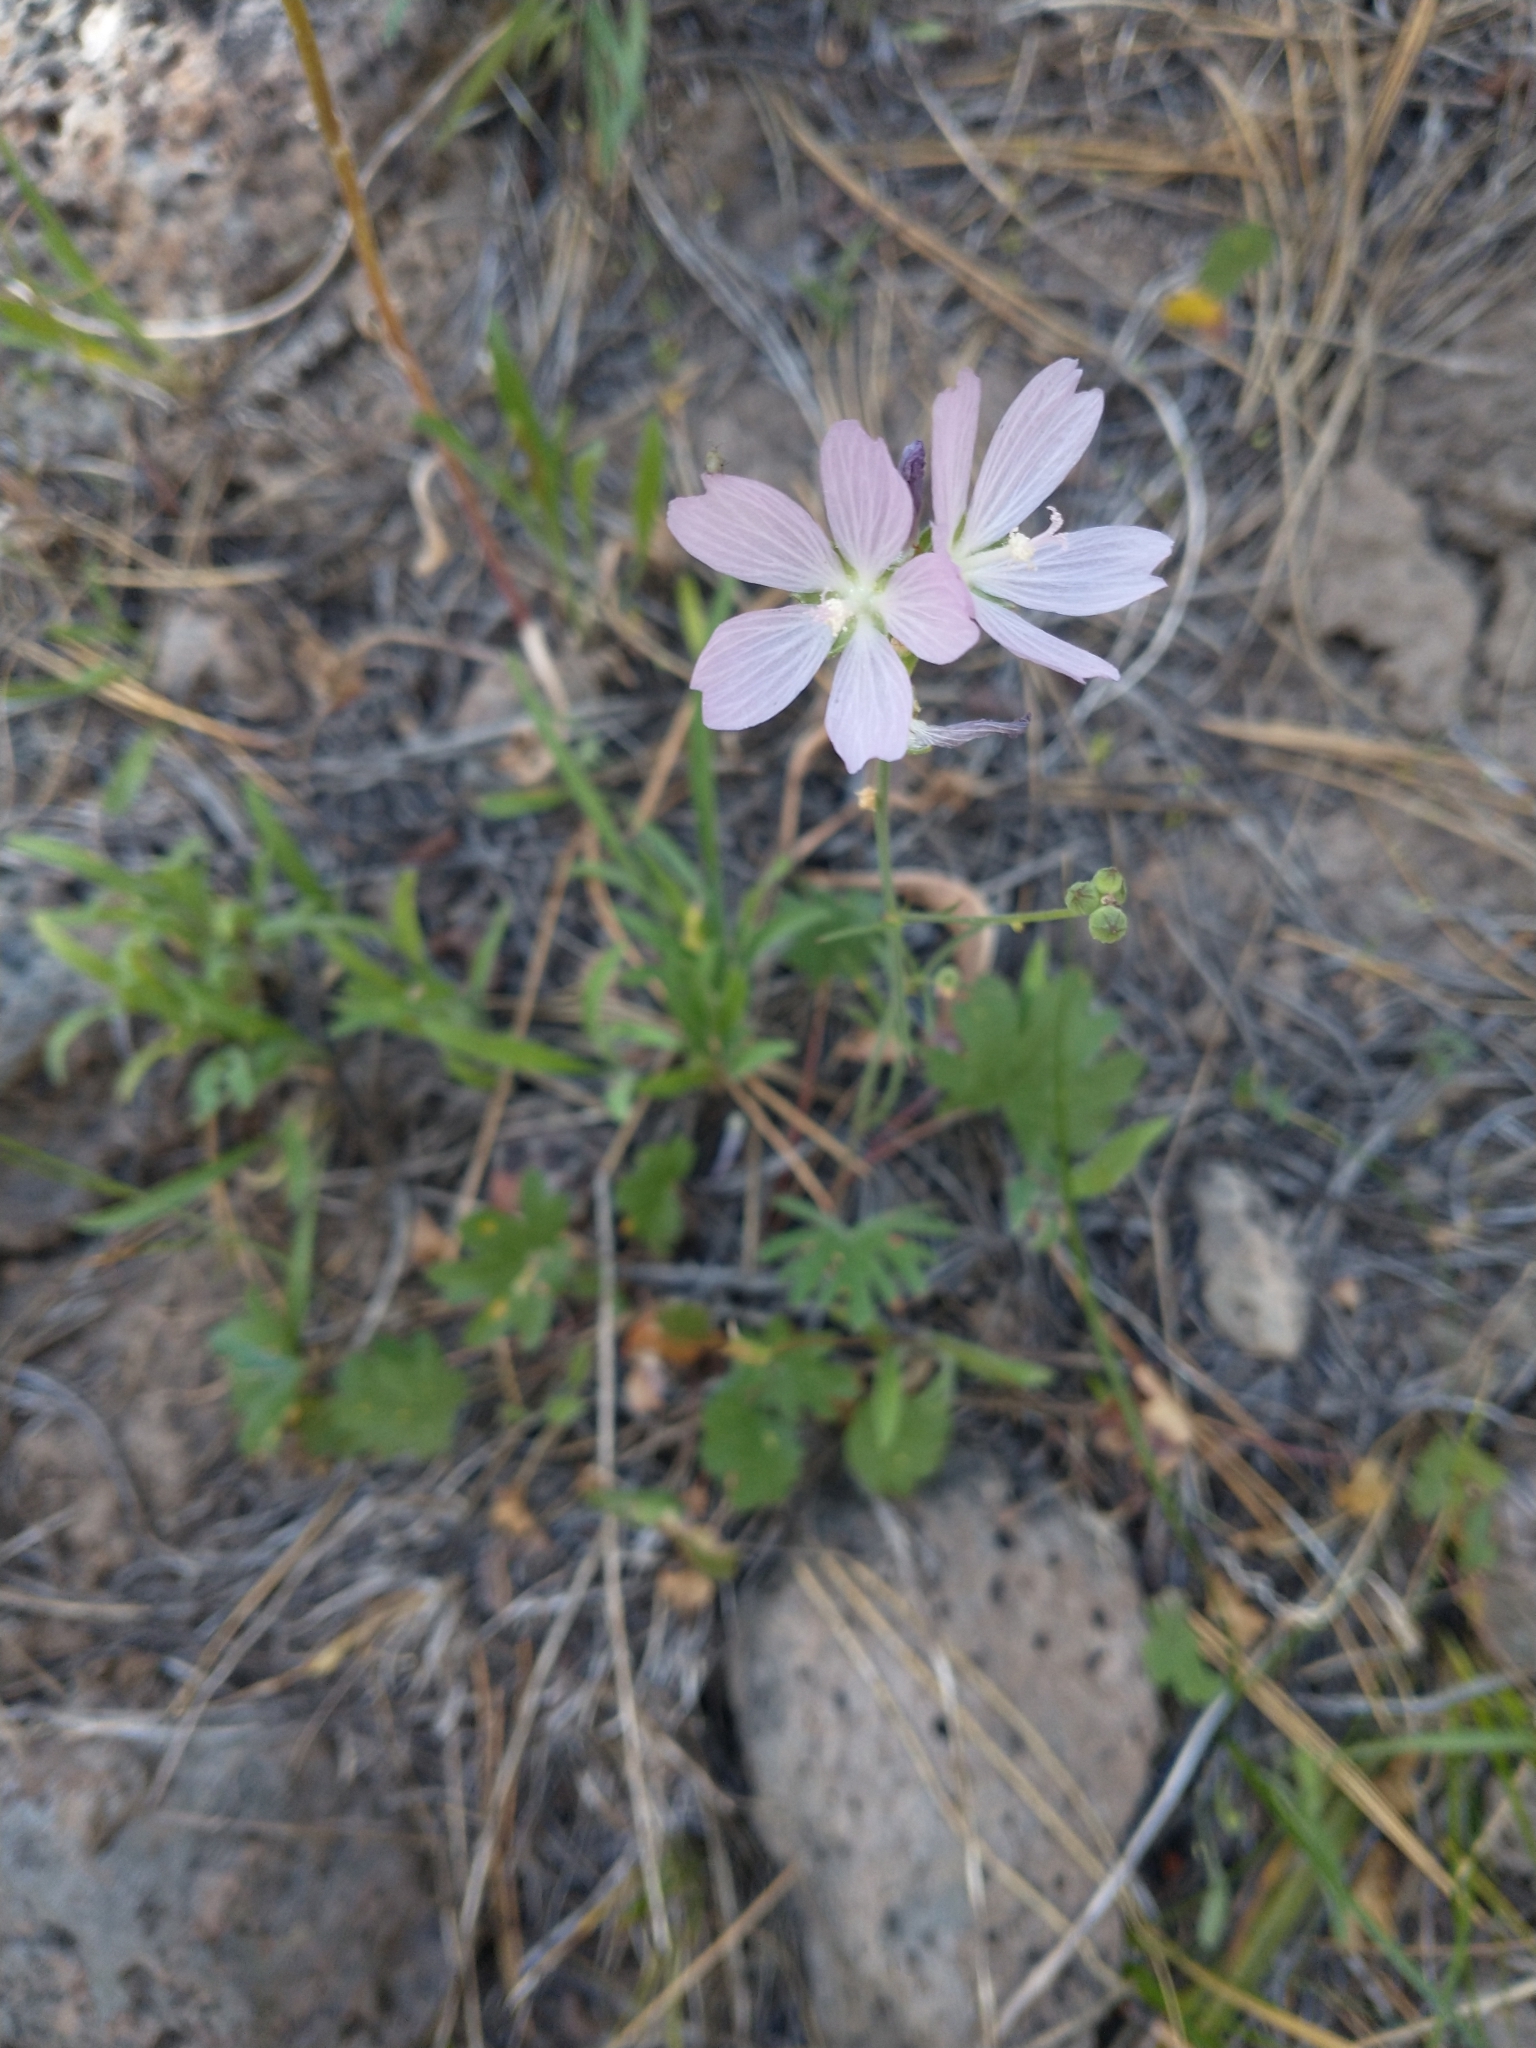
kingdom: Plantae
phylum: Tracheophyta
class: Magnoliopsida
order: Malvales
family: Malvaceae
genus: Sidalcea
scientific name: Sidalcea oregana
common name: Oregon checker-mallow
